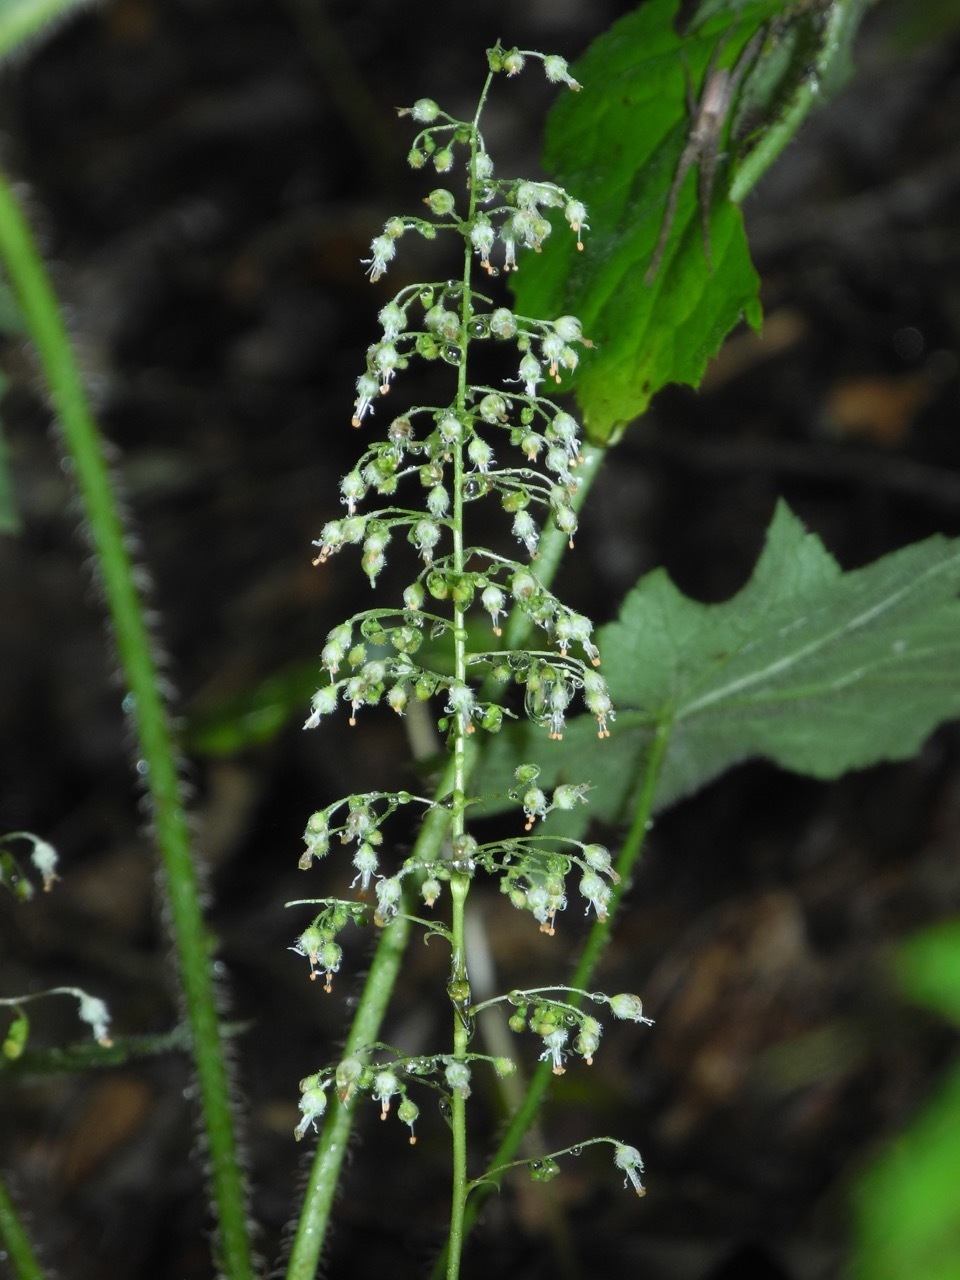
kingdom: Plantae
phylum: Tracheophyta
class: Magnoliopsida
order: Saxifragales
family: Saxifragaceae
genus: Heuchera
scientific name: Heuchera villosa
